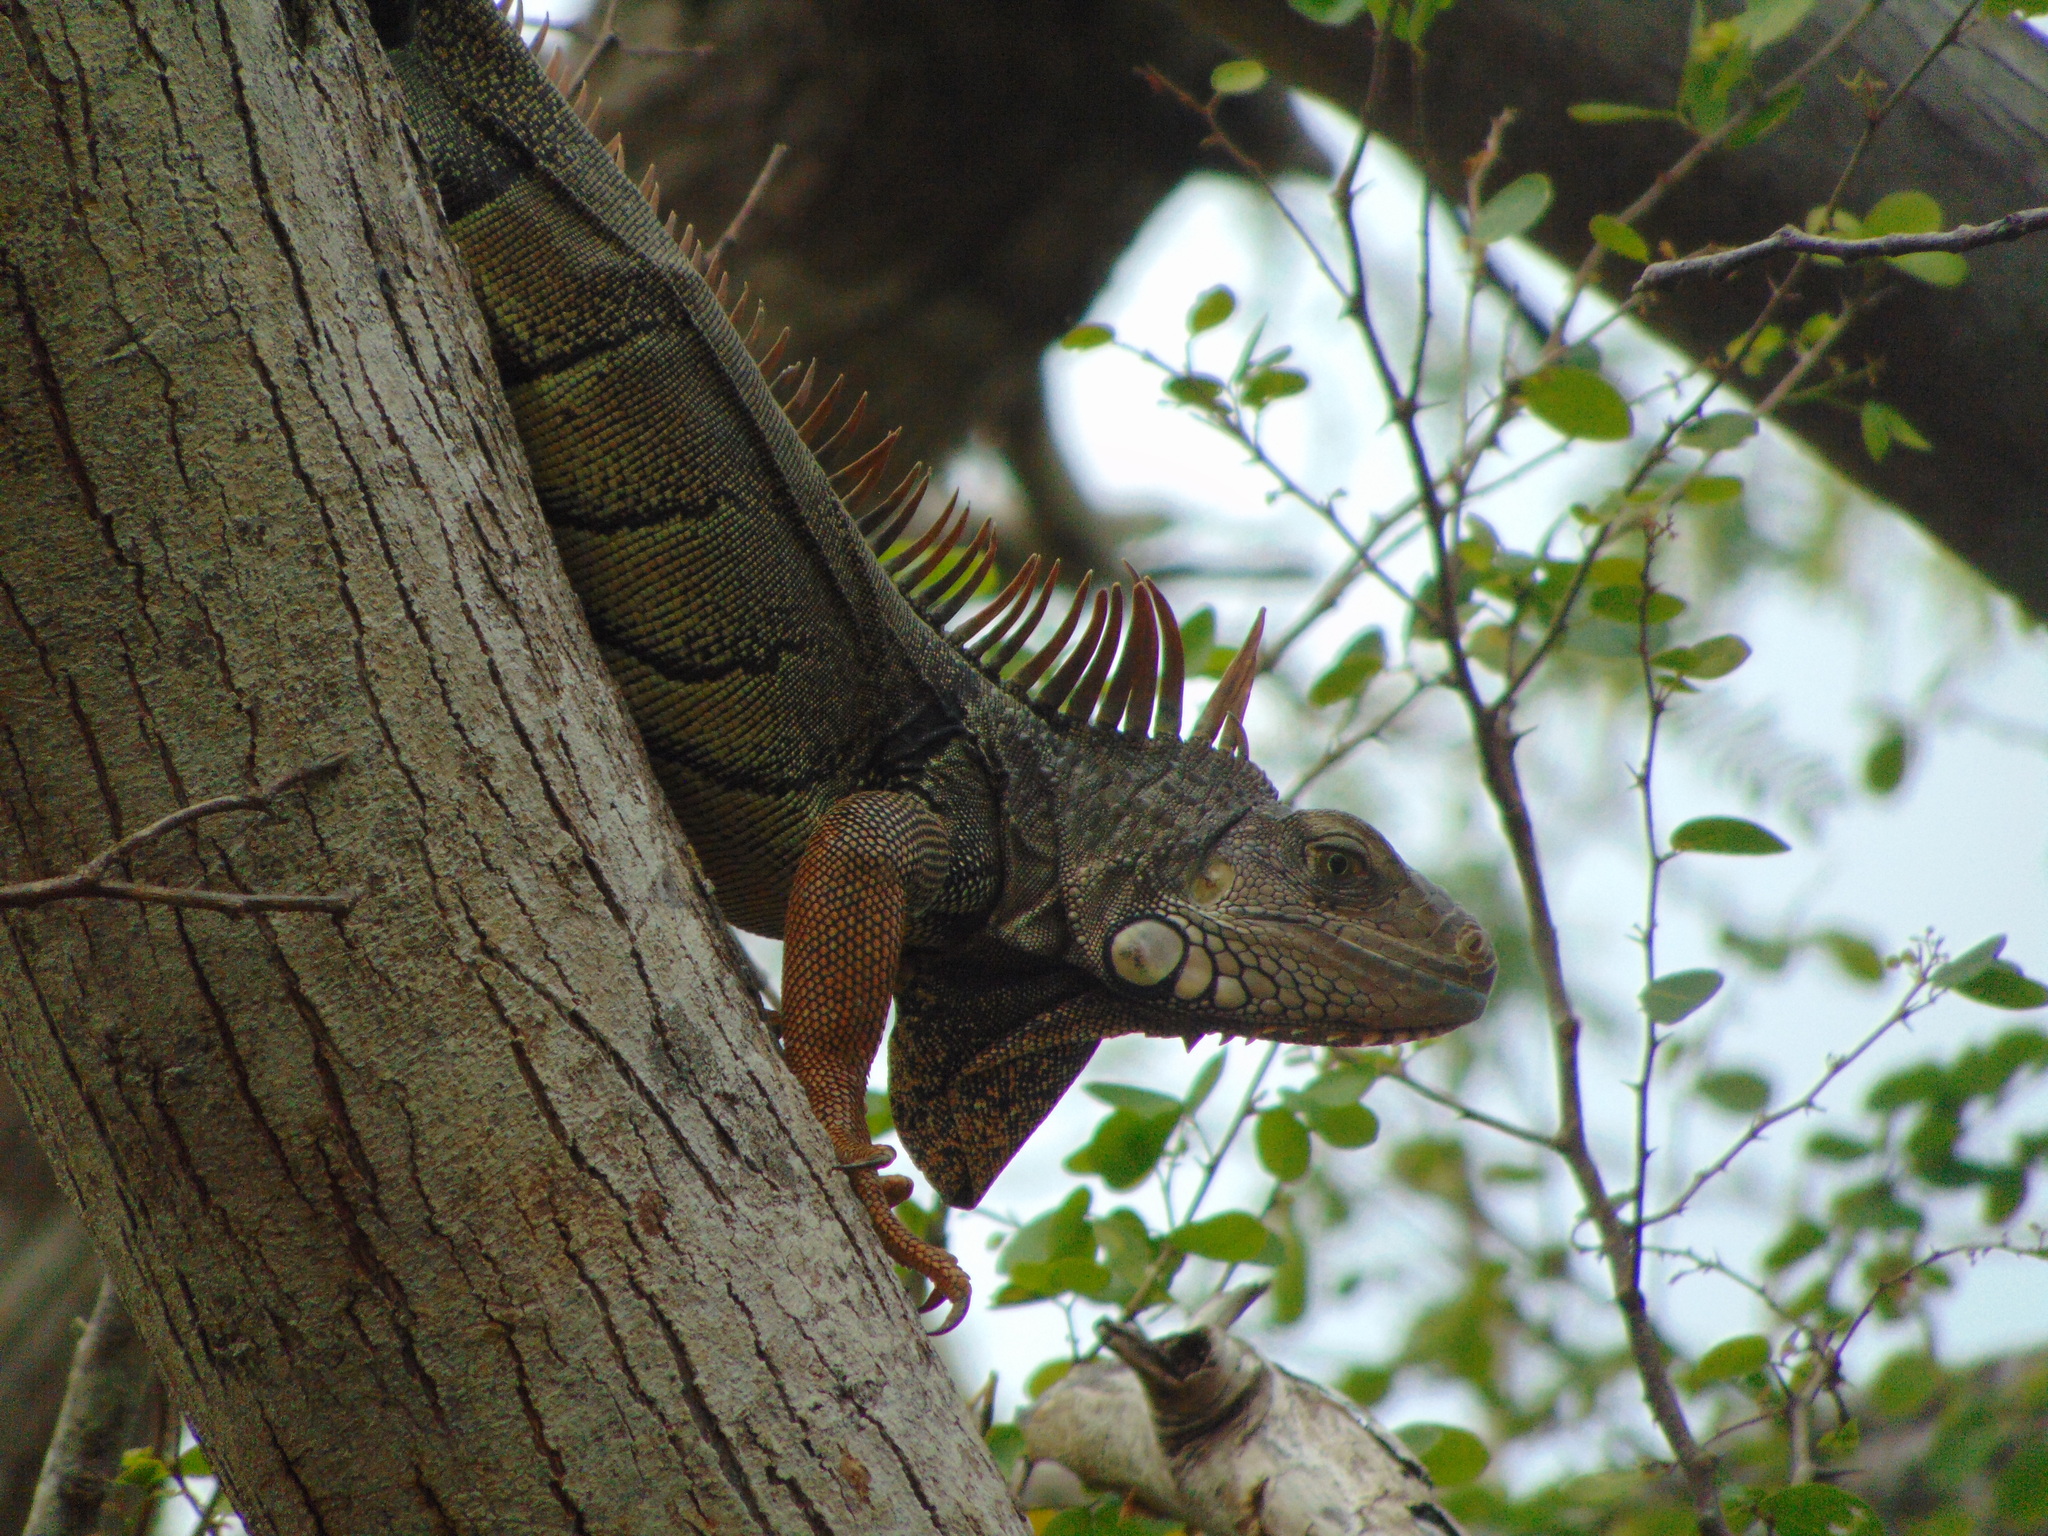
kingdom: Animalia
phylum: Chordata
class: Squamata
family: Iguanidae
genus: Iguana
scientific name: Iguana iguana
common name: Green iguana
